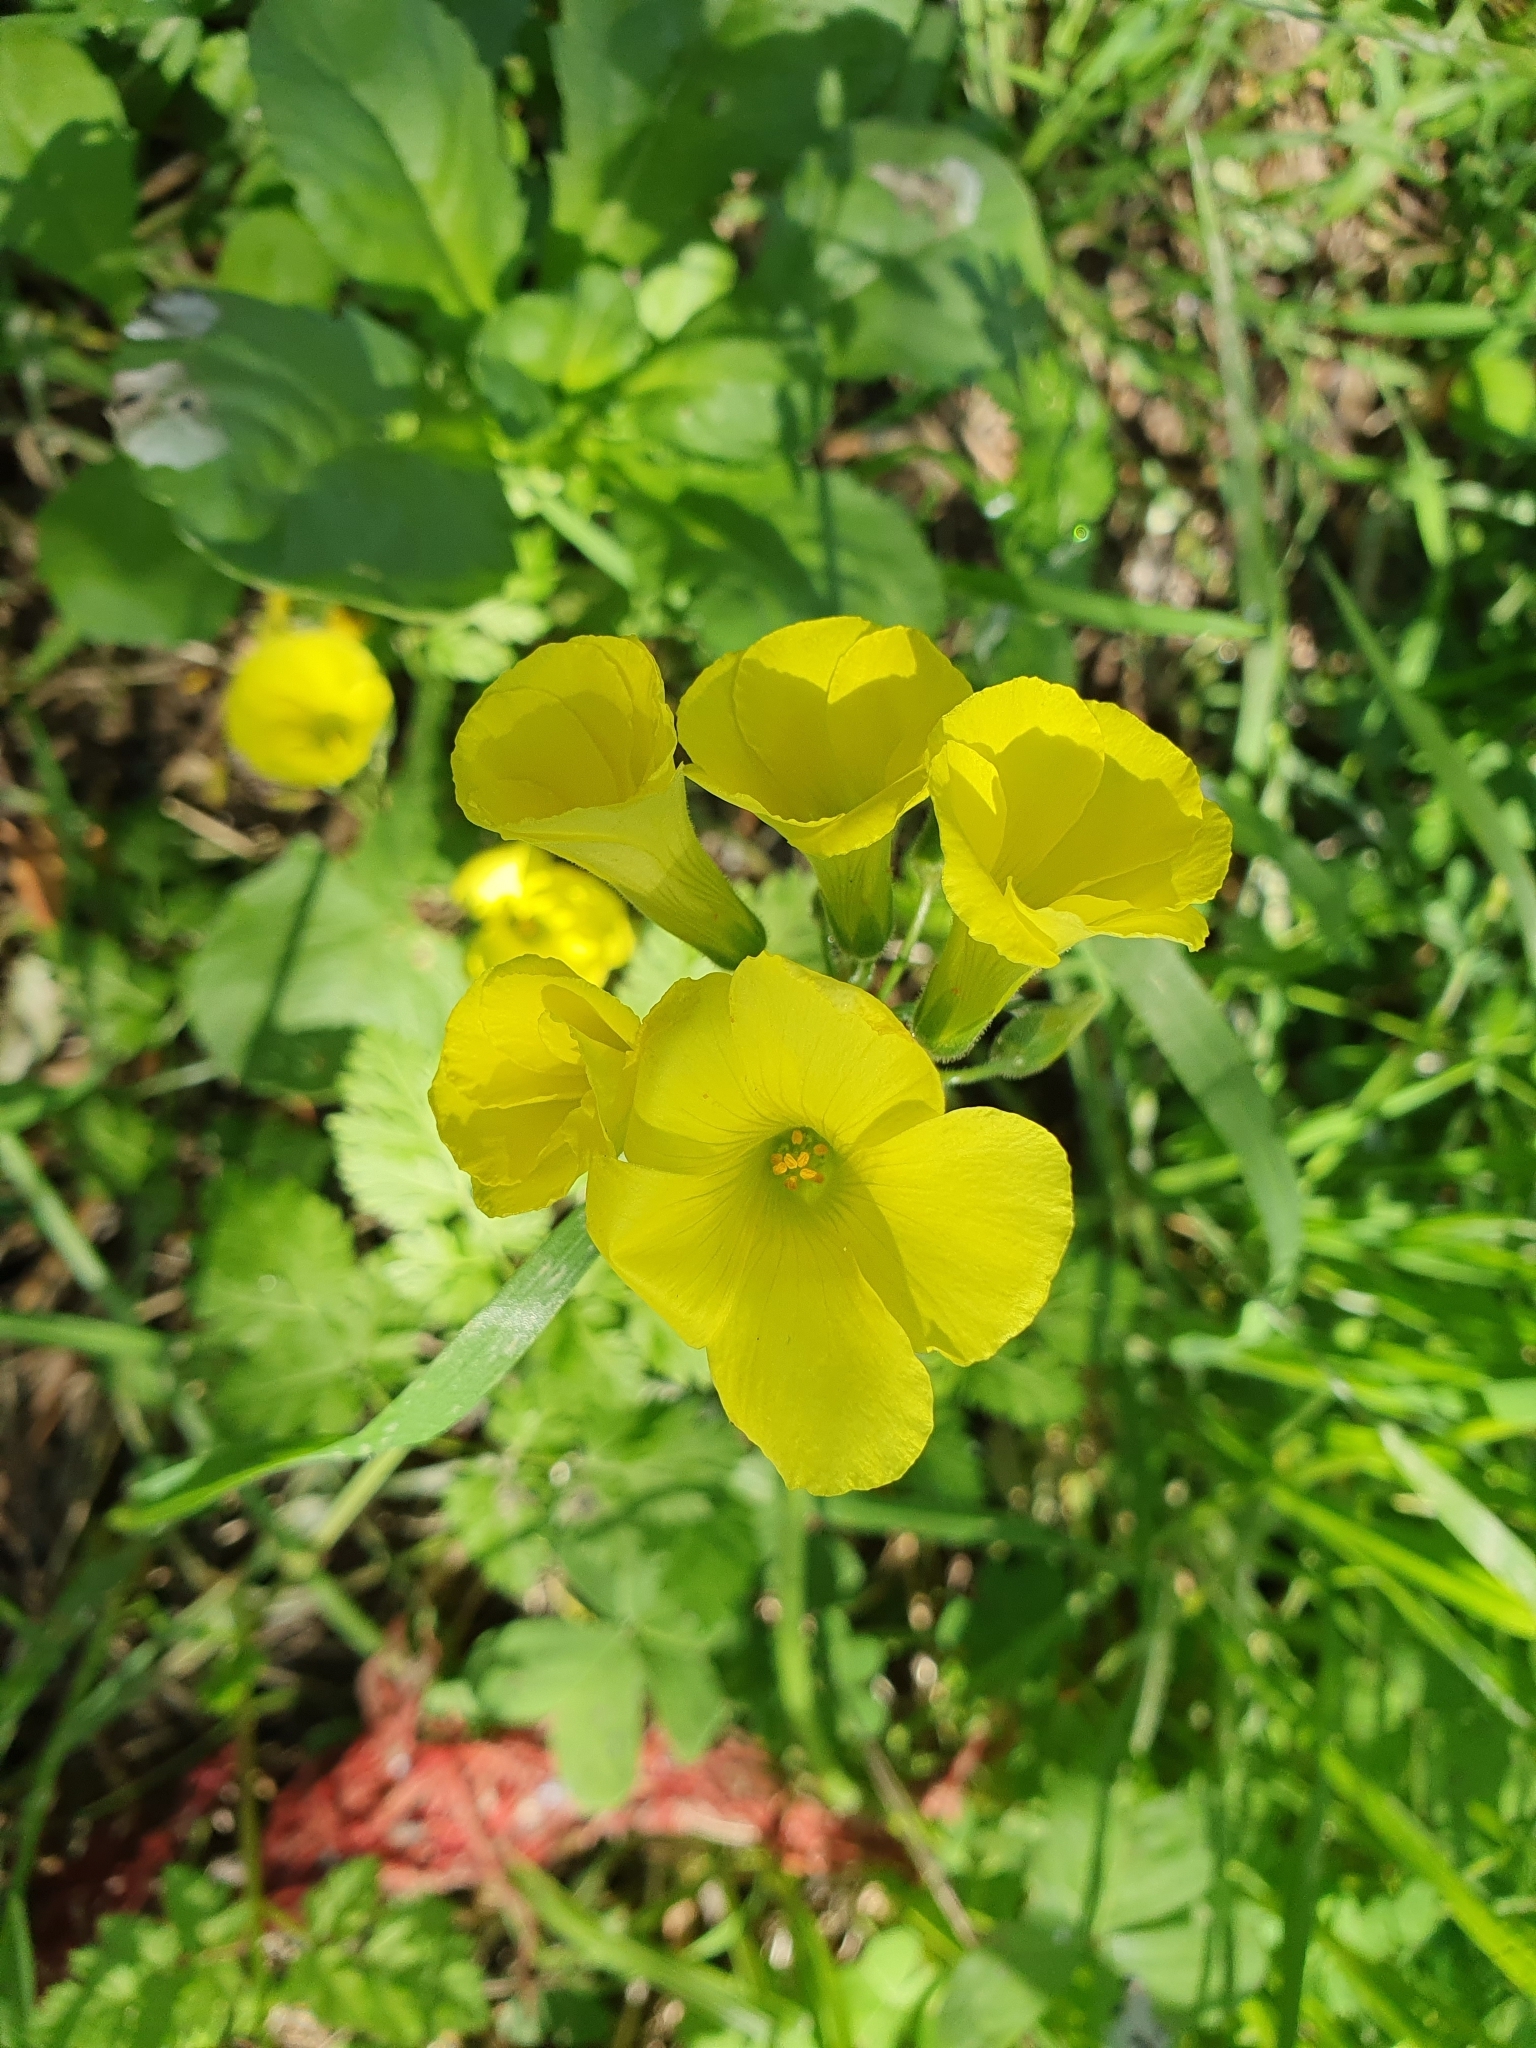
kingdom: Plantae
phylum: Tracheophyta
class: Magnoliopsida
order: Oxalidales
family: Oxalidaceae
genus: Oxalis
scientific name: Oxalis pes-caprae
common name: Bermuda-buttercup
